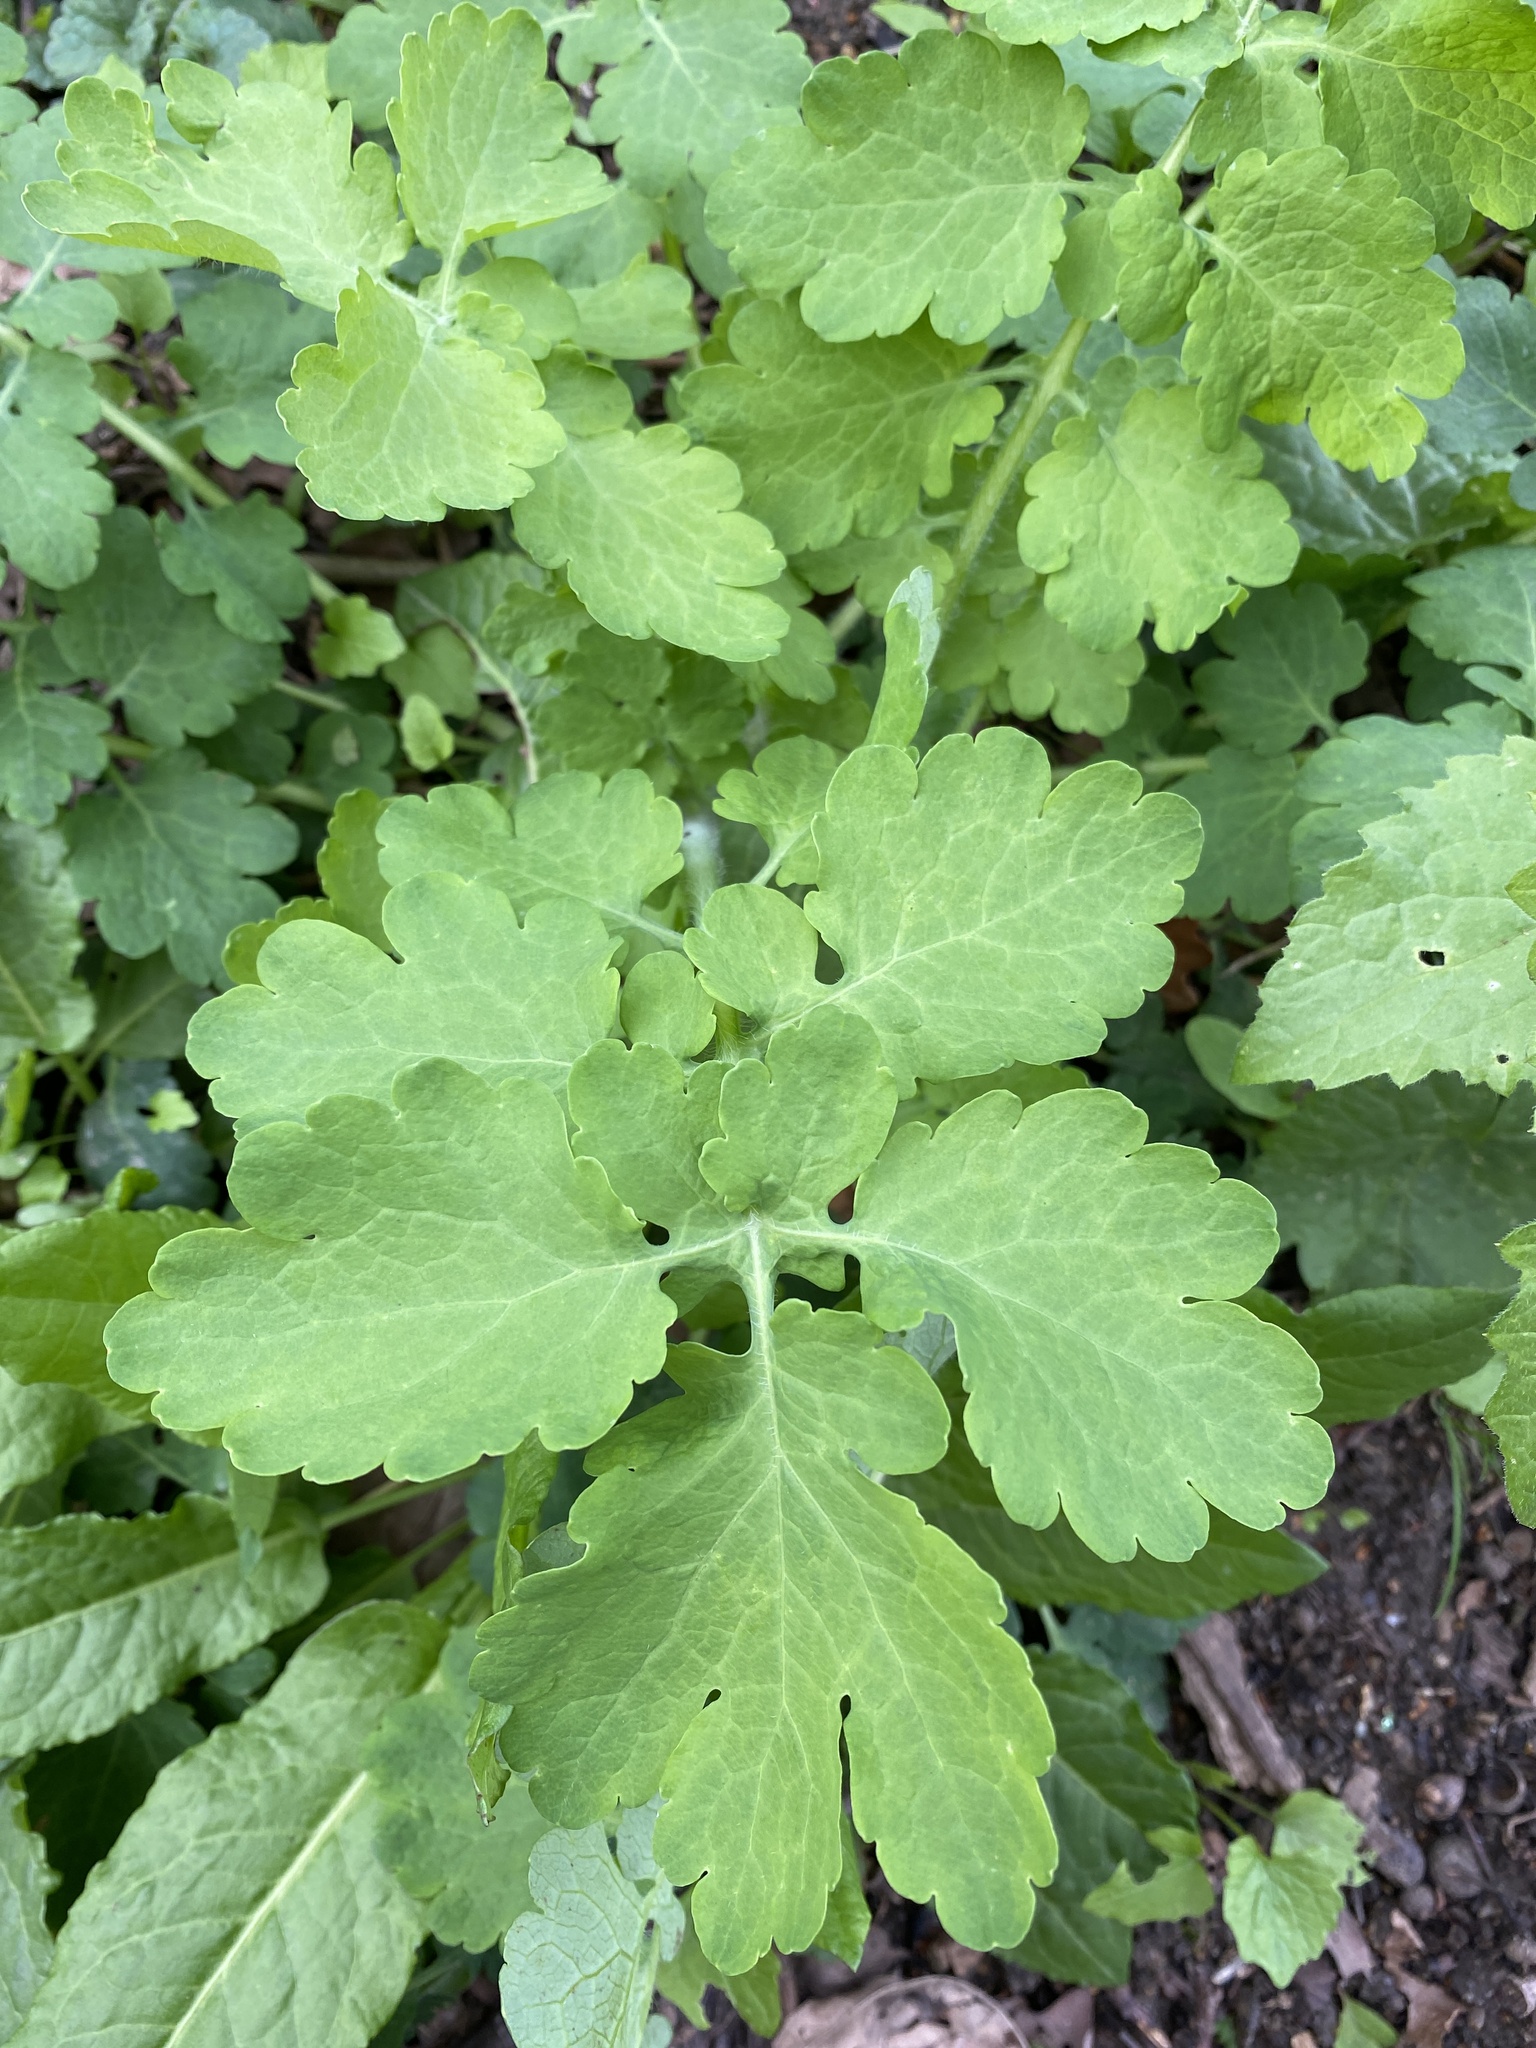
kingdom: Plantae
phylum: Tracheophyta
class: Magnoliopsida
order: Ranunculales
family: Papaveraceae
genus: Chelidonium
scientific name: Chelidonium majus
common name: Greater celandine
